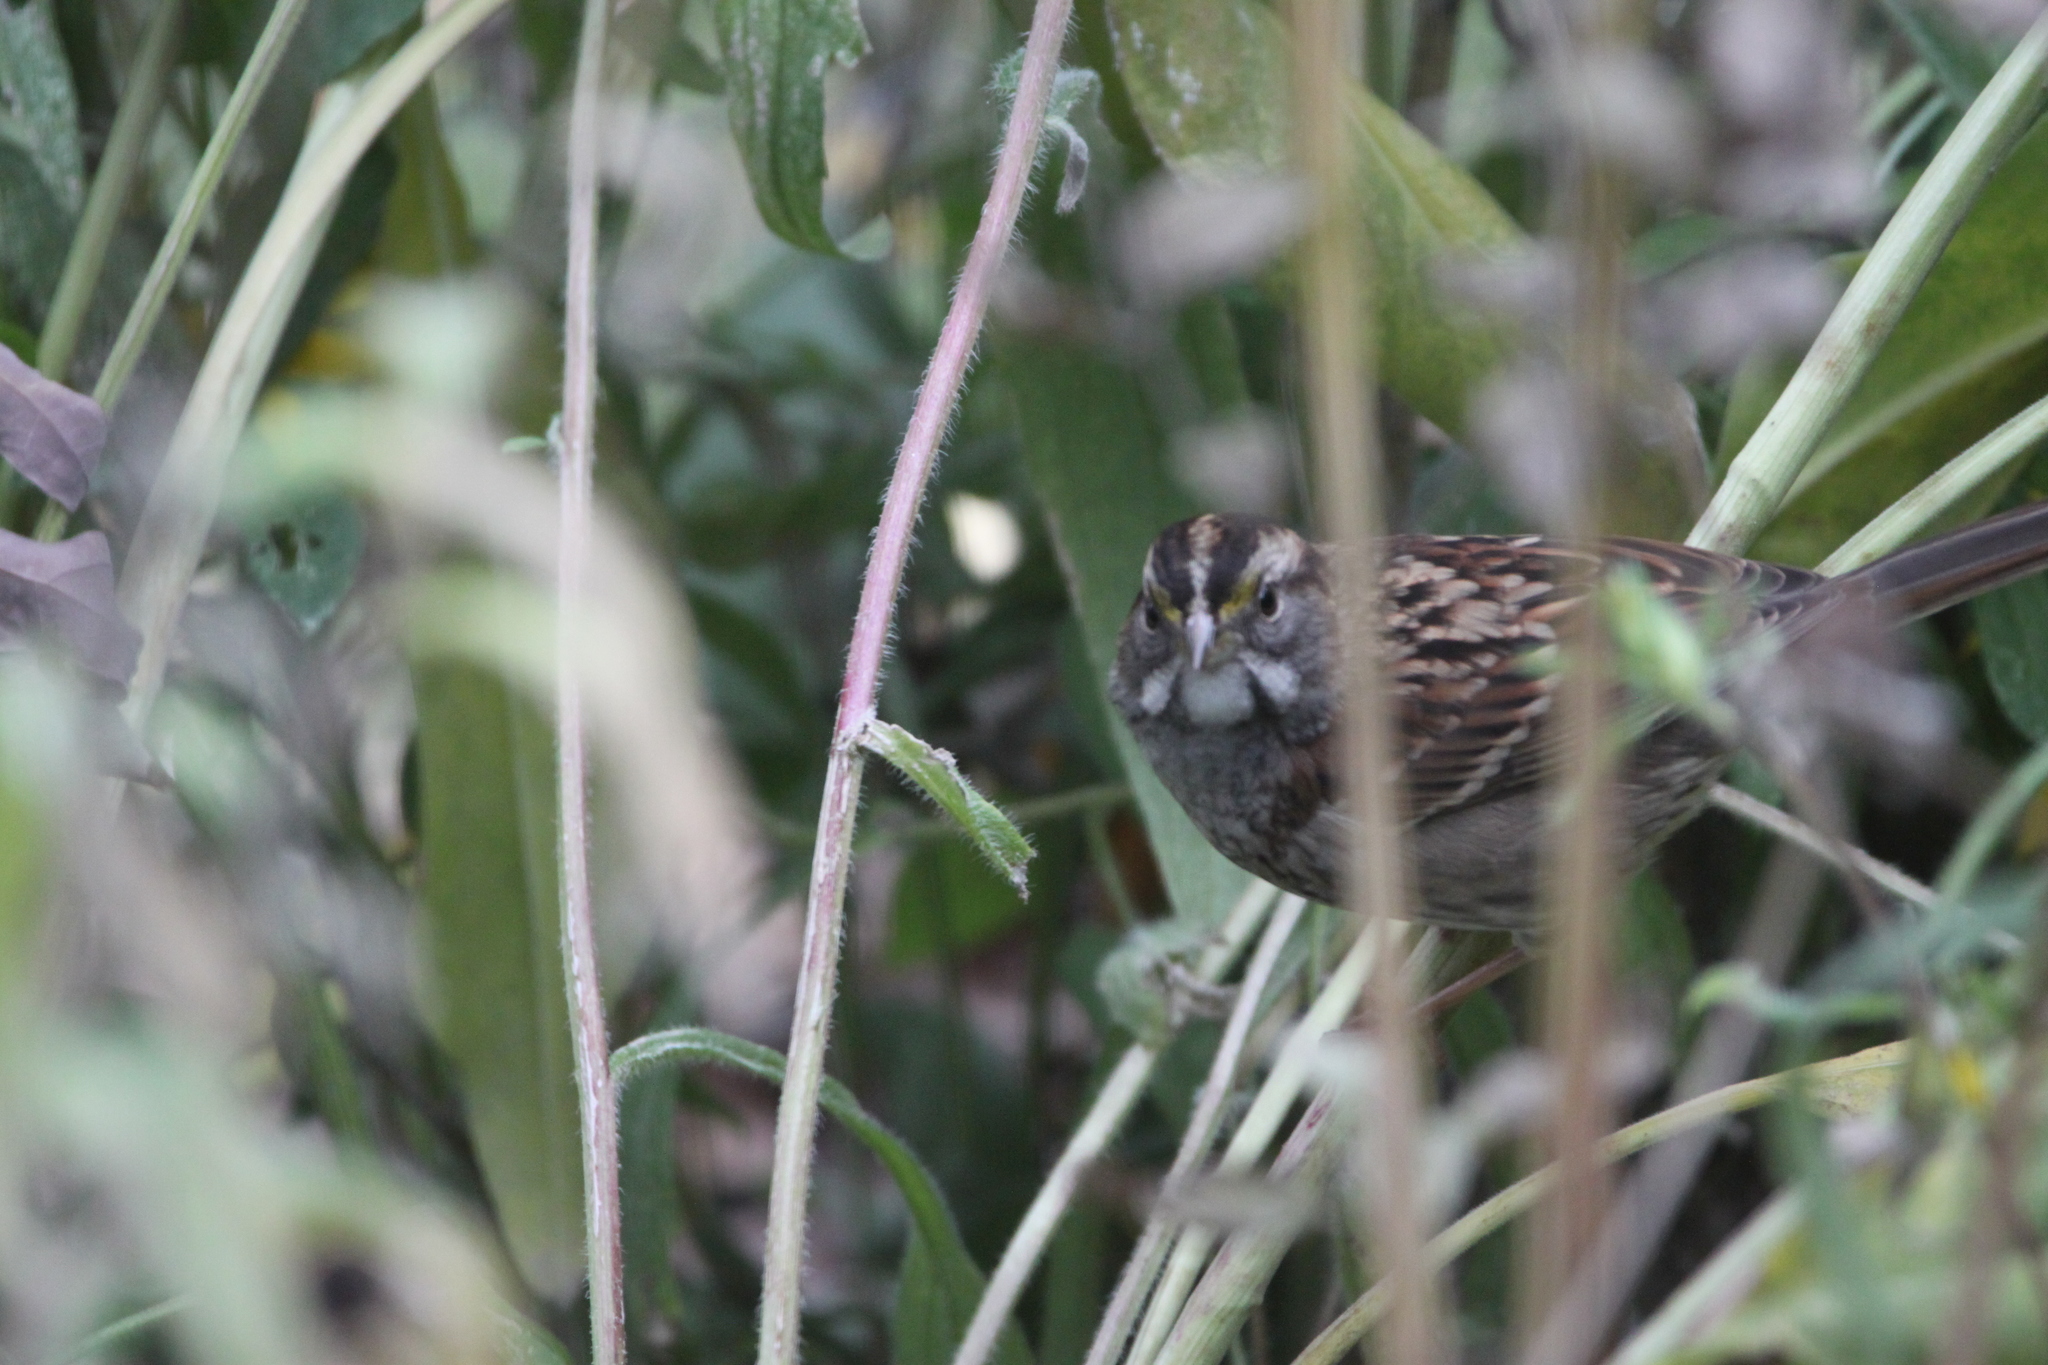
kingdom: Animalia
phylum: Chordata
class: Aves
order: Passeriformes
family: Passerellidae
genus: Zonotrichia
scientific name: Zonotrichia albicollis
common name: White-throated sparrow
